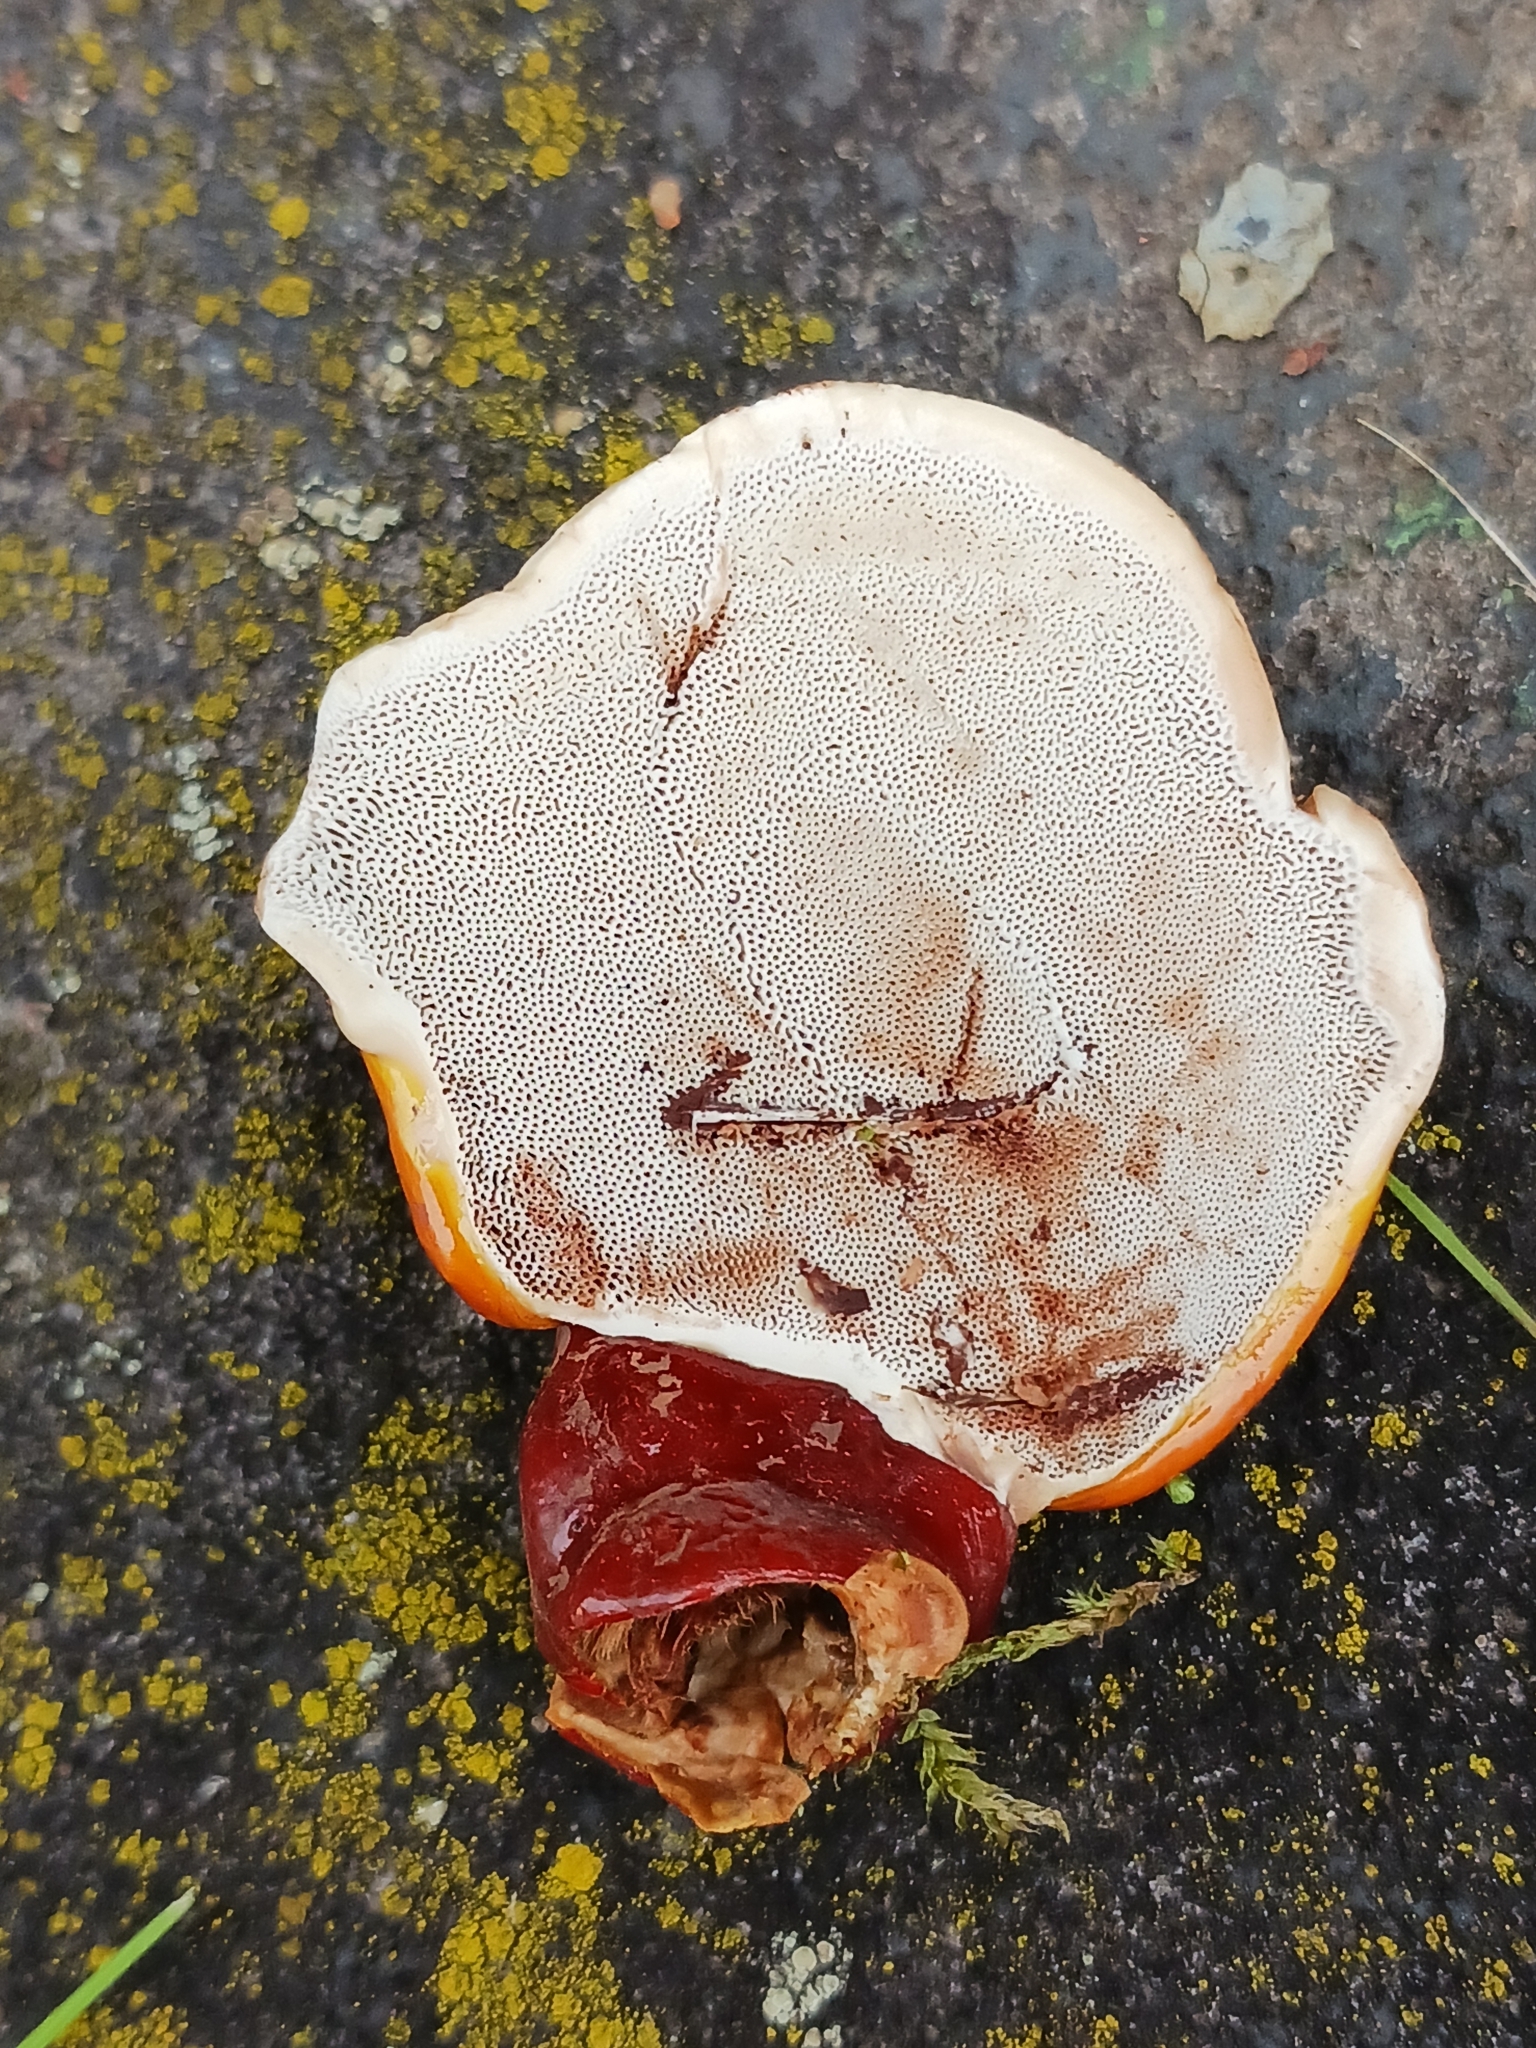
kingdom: Fungi
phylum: Basidiomycota
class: Agaricomycetes
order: Polyporales
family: Polyporaceae
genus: Ganoderma
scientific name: Ganoderma lucidum
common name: Lacquered bracket
